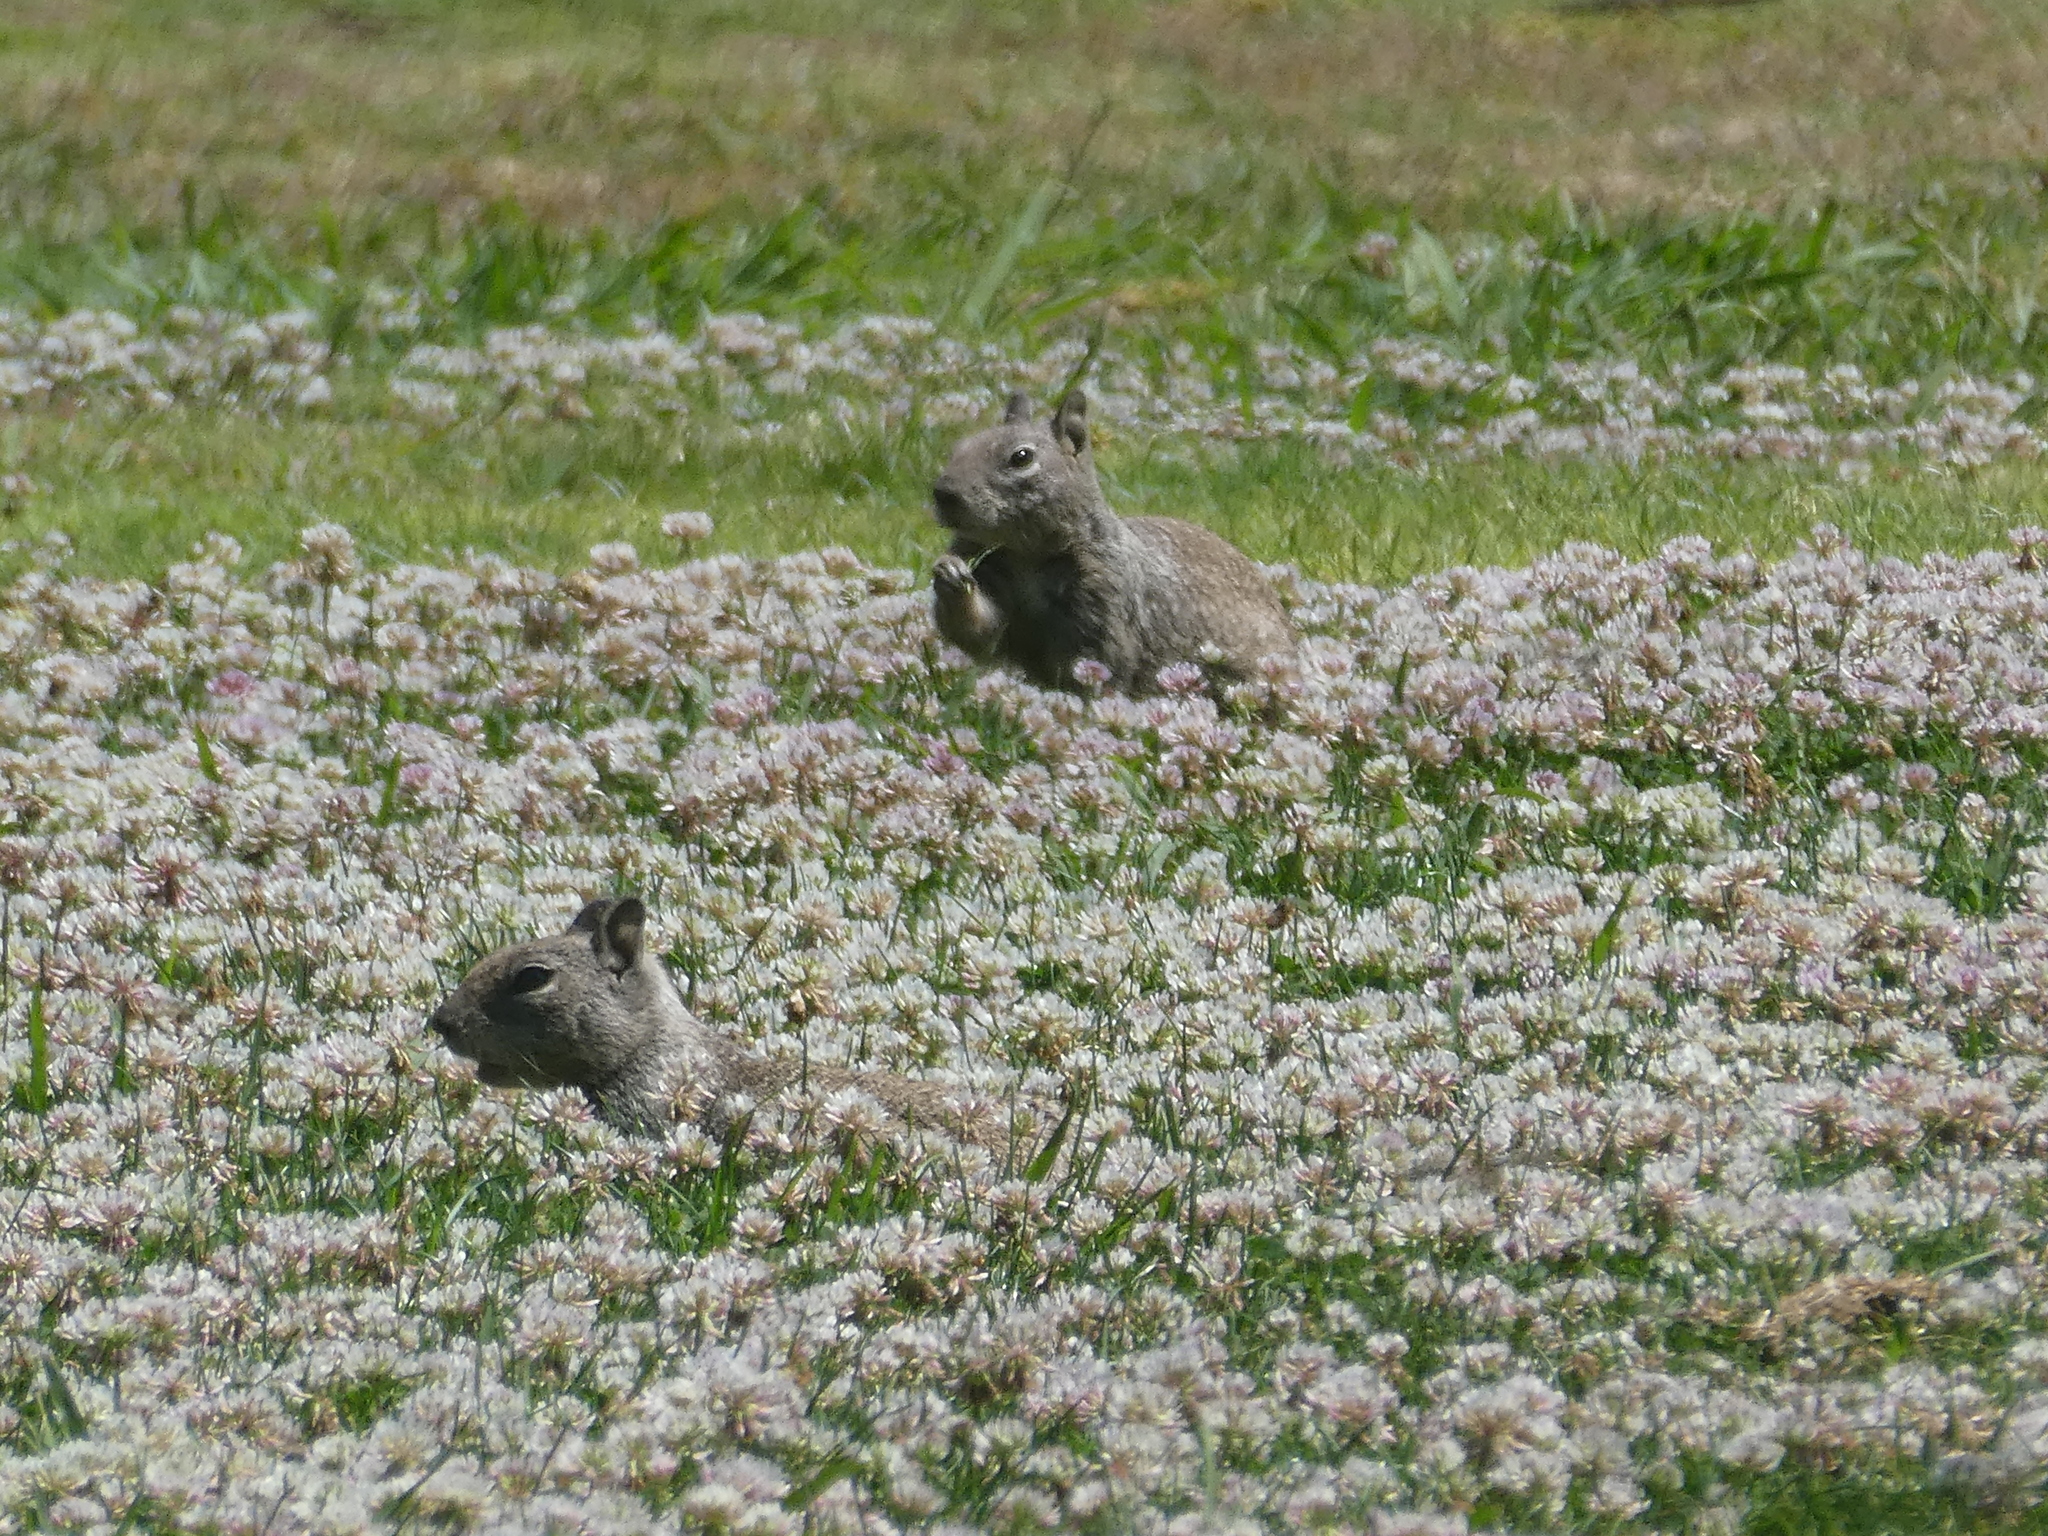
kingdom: Animalia
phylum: Chordata
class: Mammalia
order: Rodentia
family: Sciuridae
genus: Otospermophilus
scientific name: Otospermophilus beecheyi
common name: California ground squirrel
